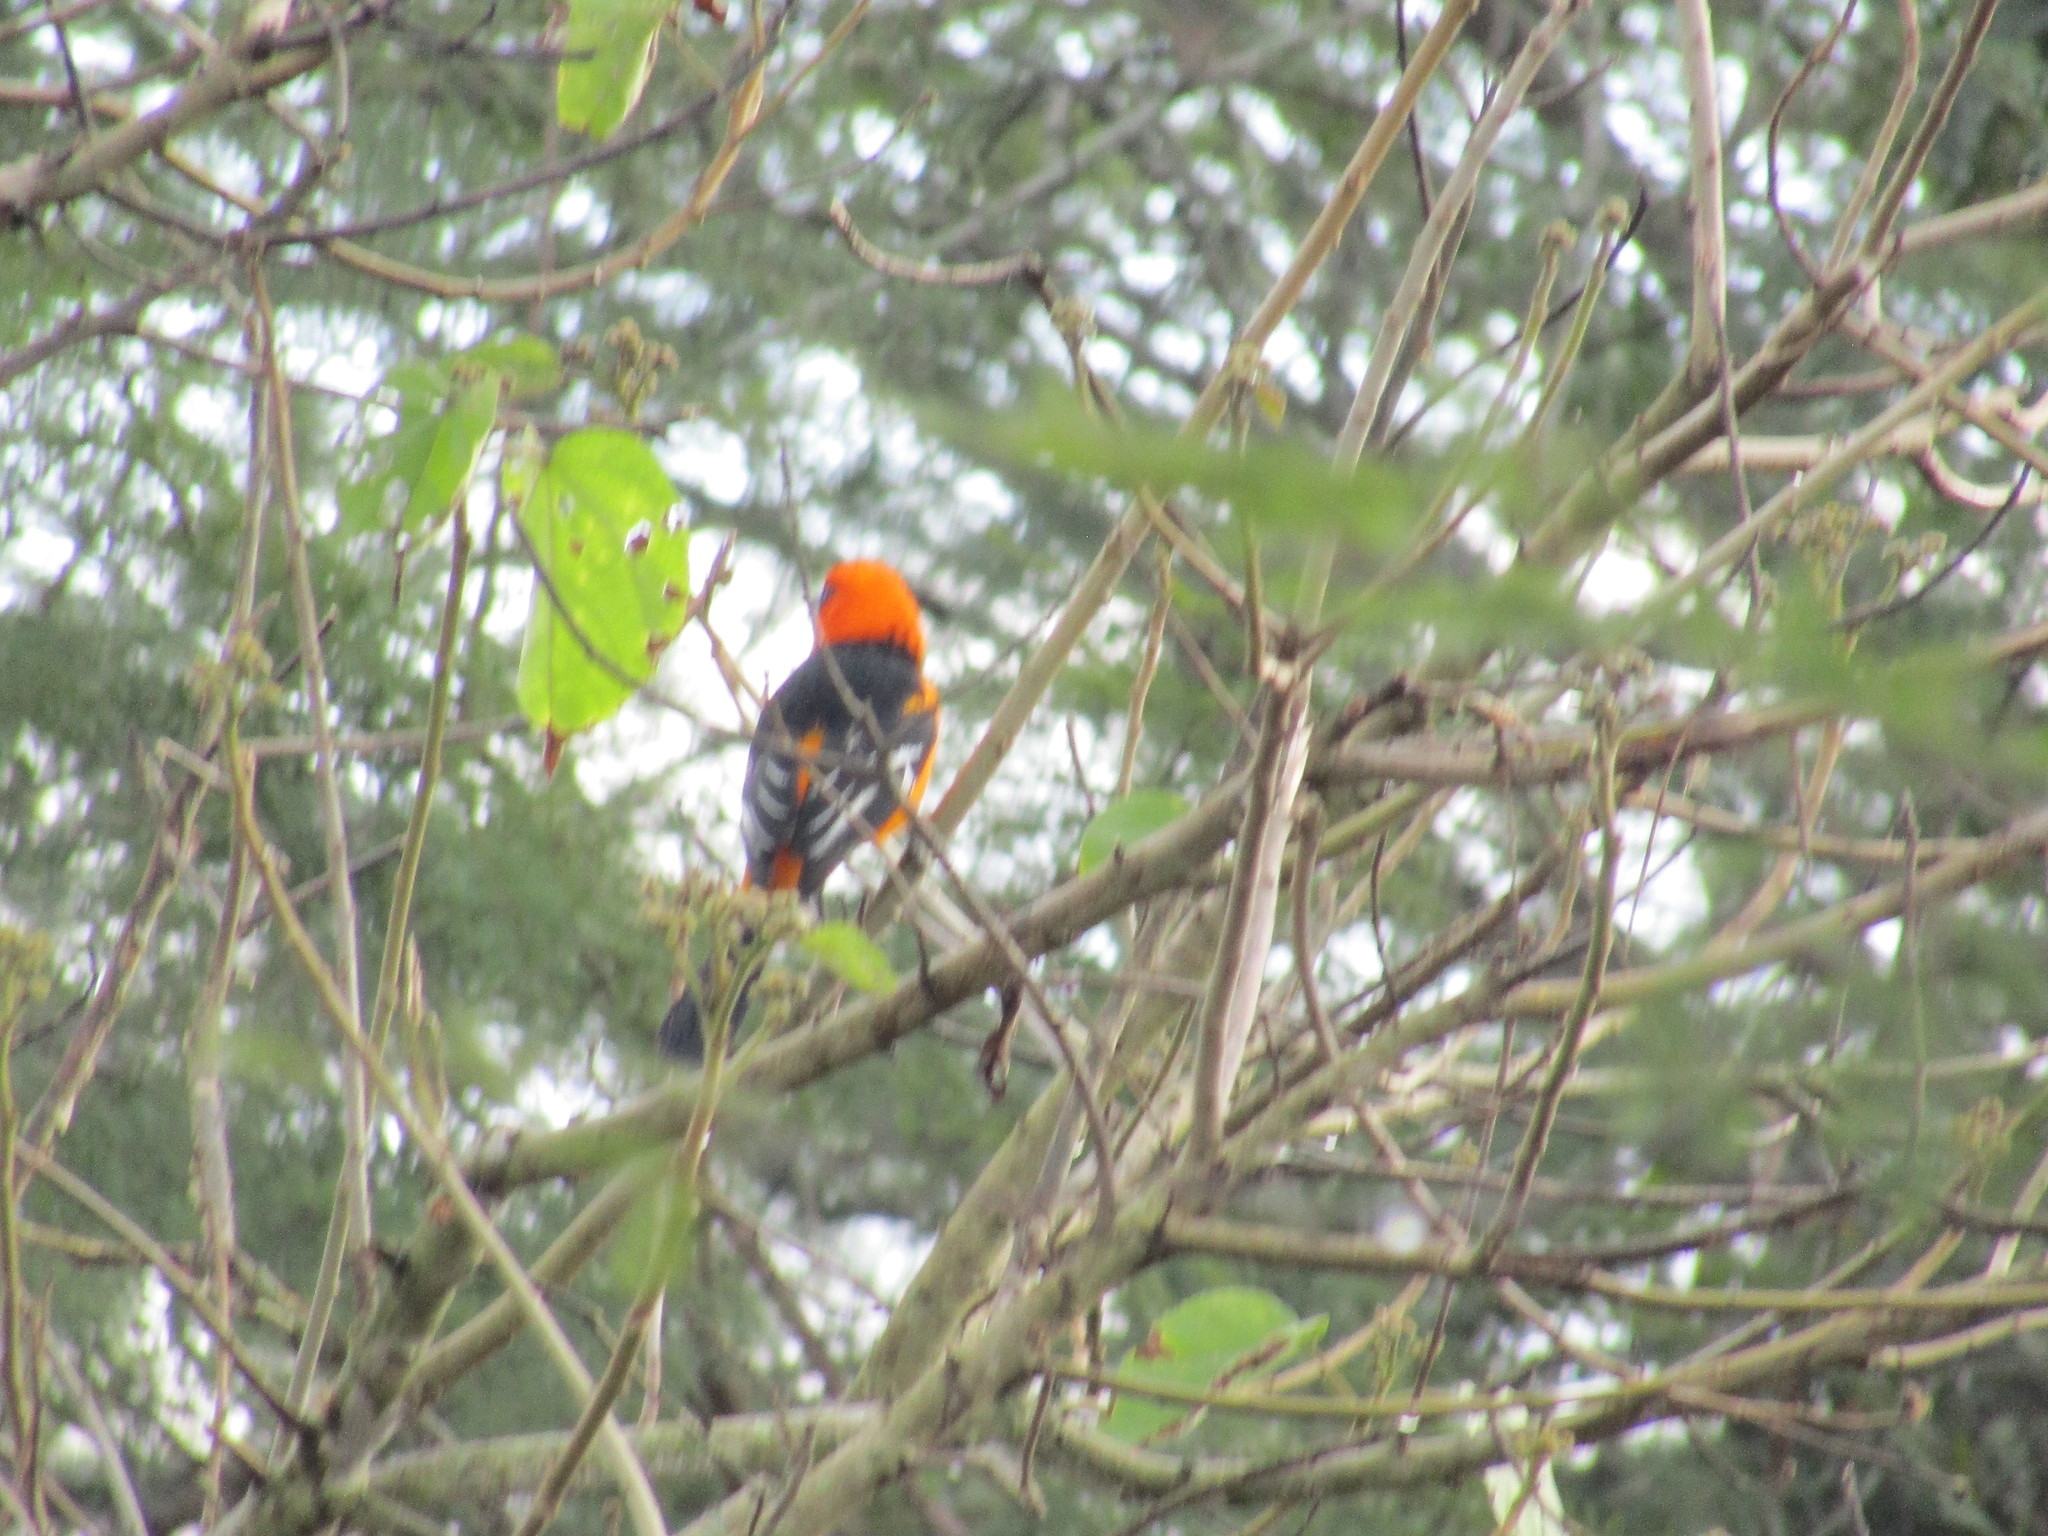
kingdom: Animalia
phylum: Chordata
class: Aves
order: Passeriformes
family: Icteridae
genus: Icterus
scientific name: Icterus gularis
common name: Altamira oriole
